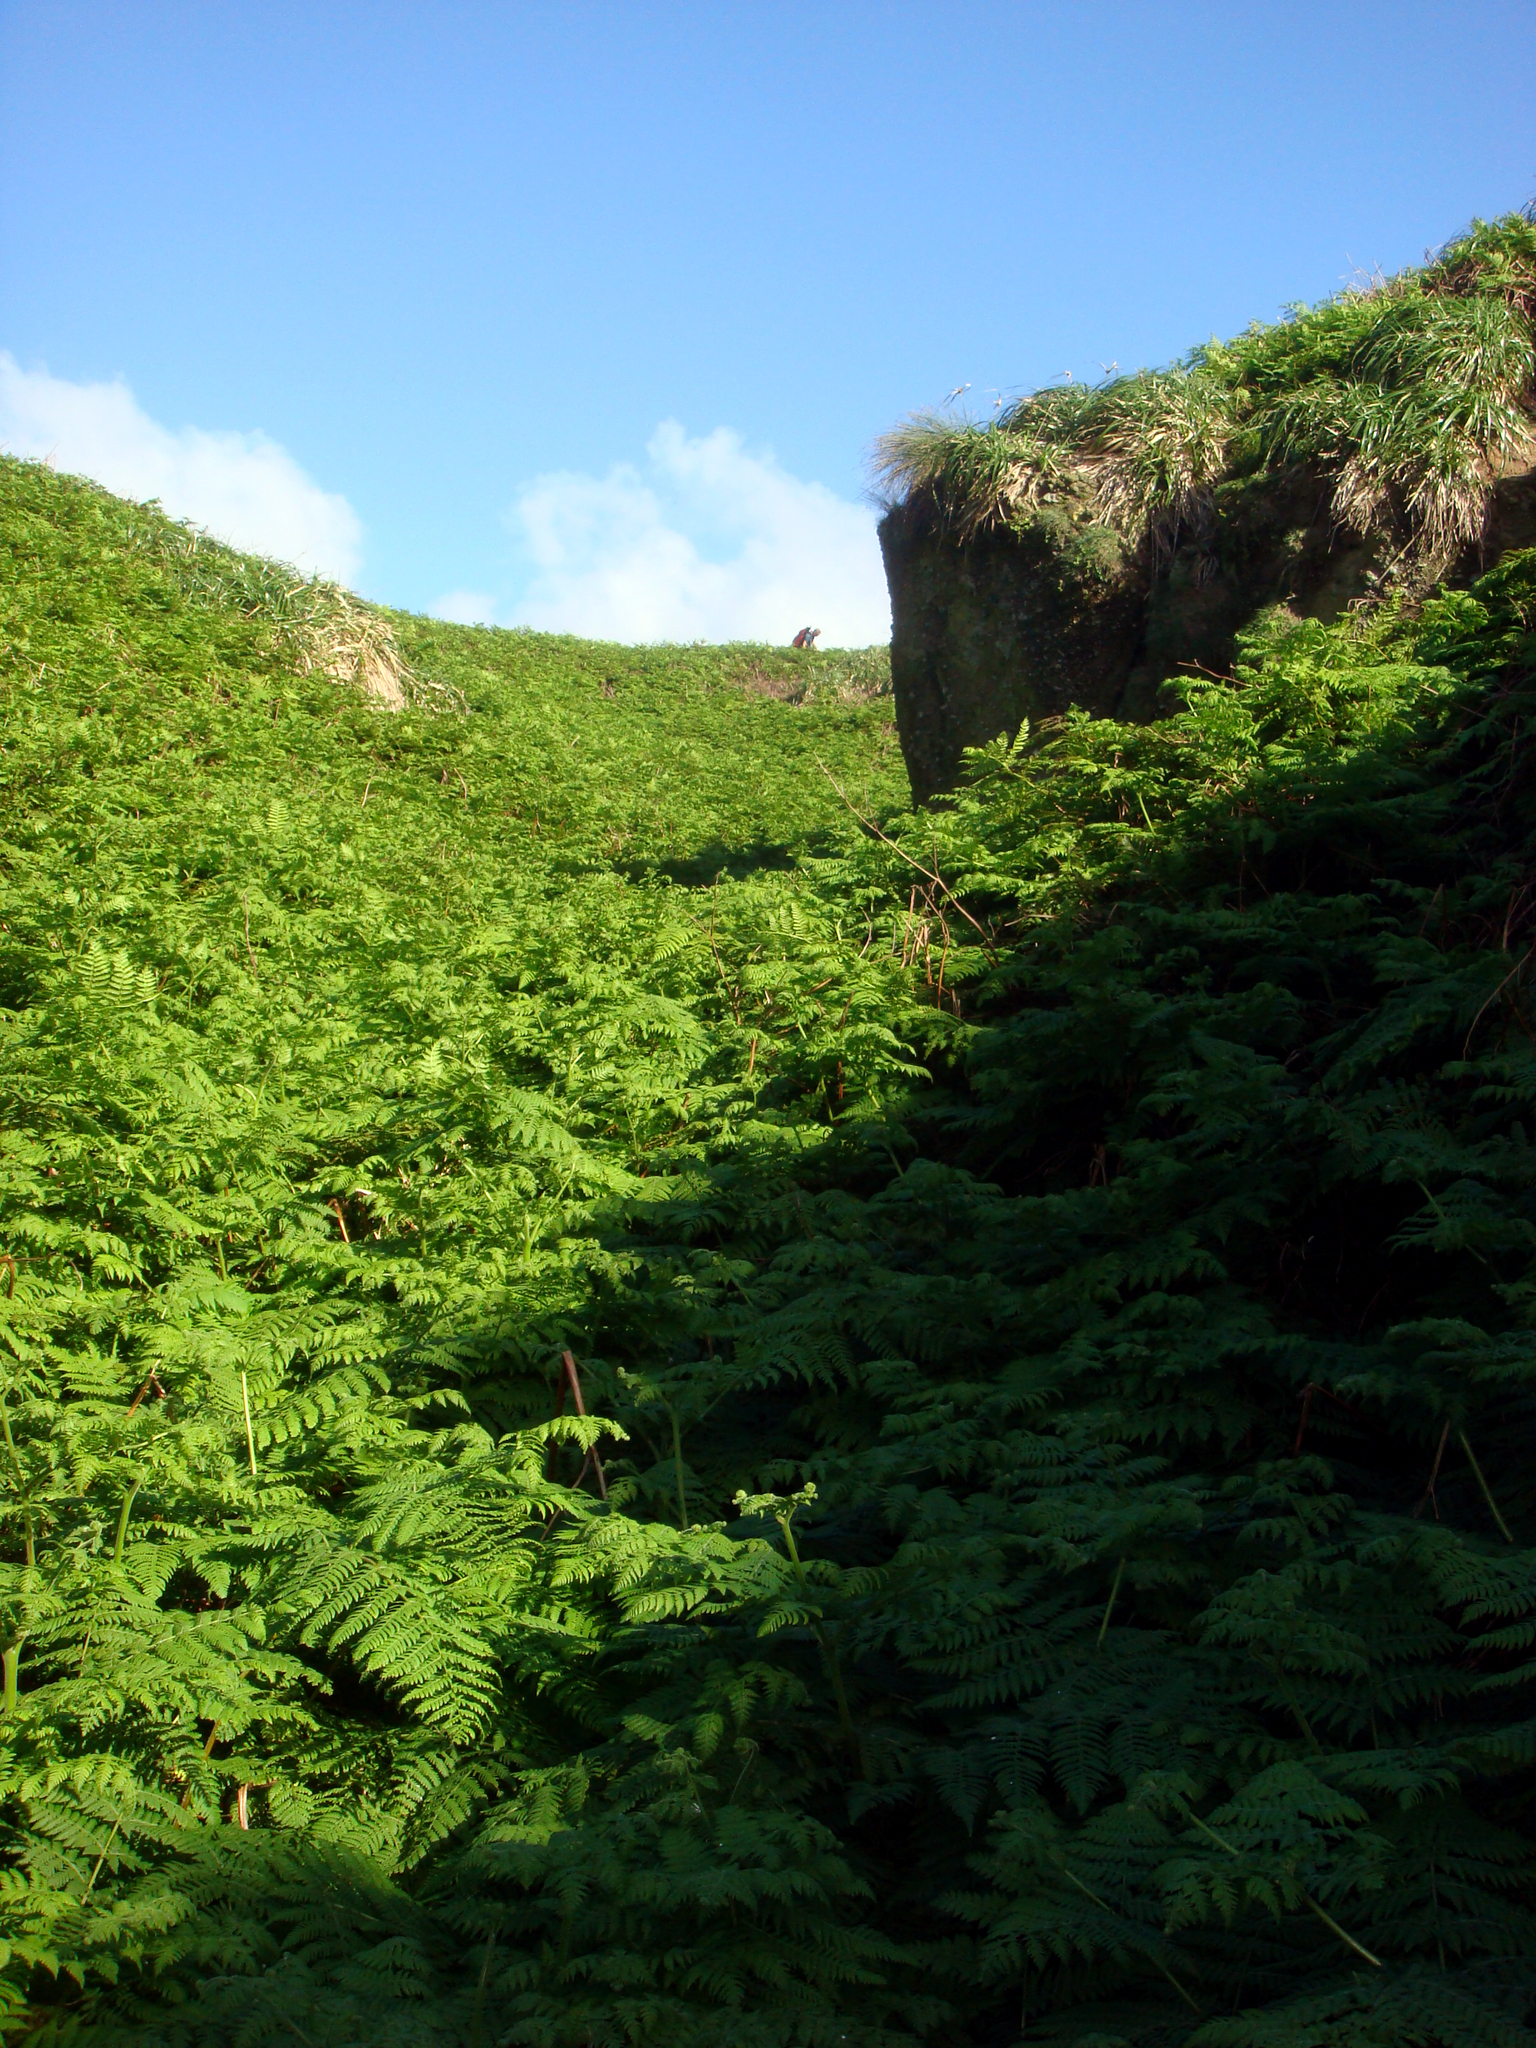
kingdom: Plantae
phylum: Tracheophyta
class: Polypodiopsida
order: Polypodiales
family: Dennstaedtiaceae
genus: Hypolepis
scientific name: Hypolepis dicksonioides
